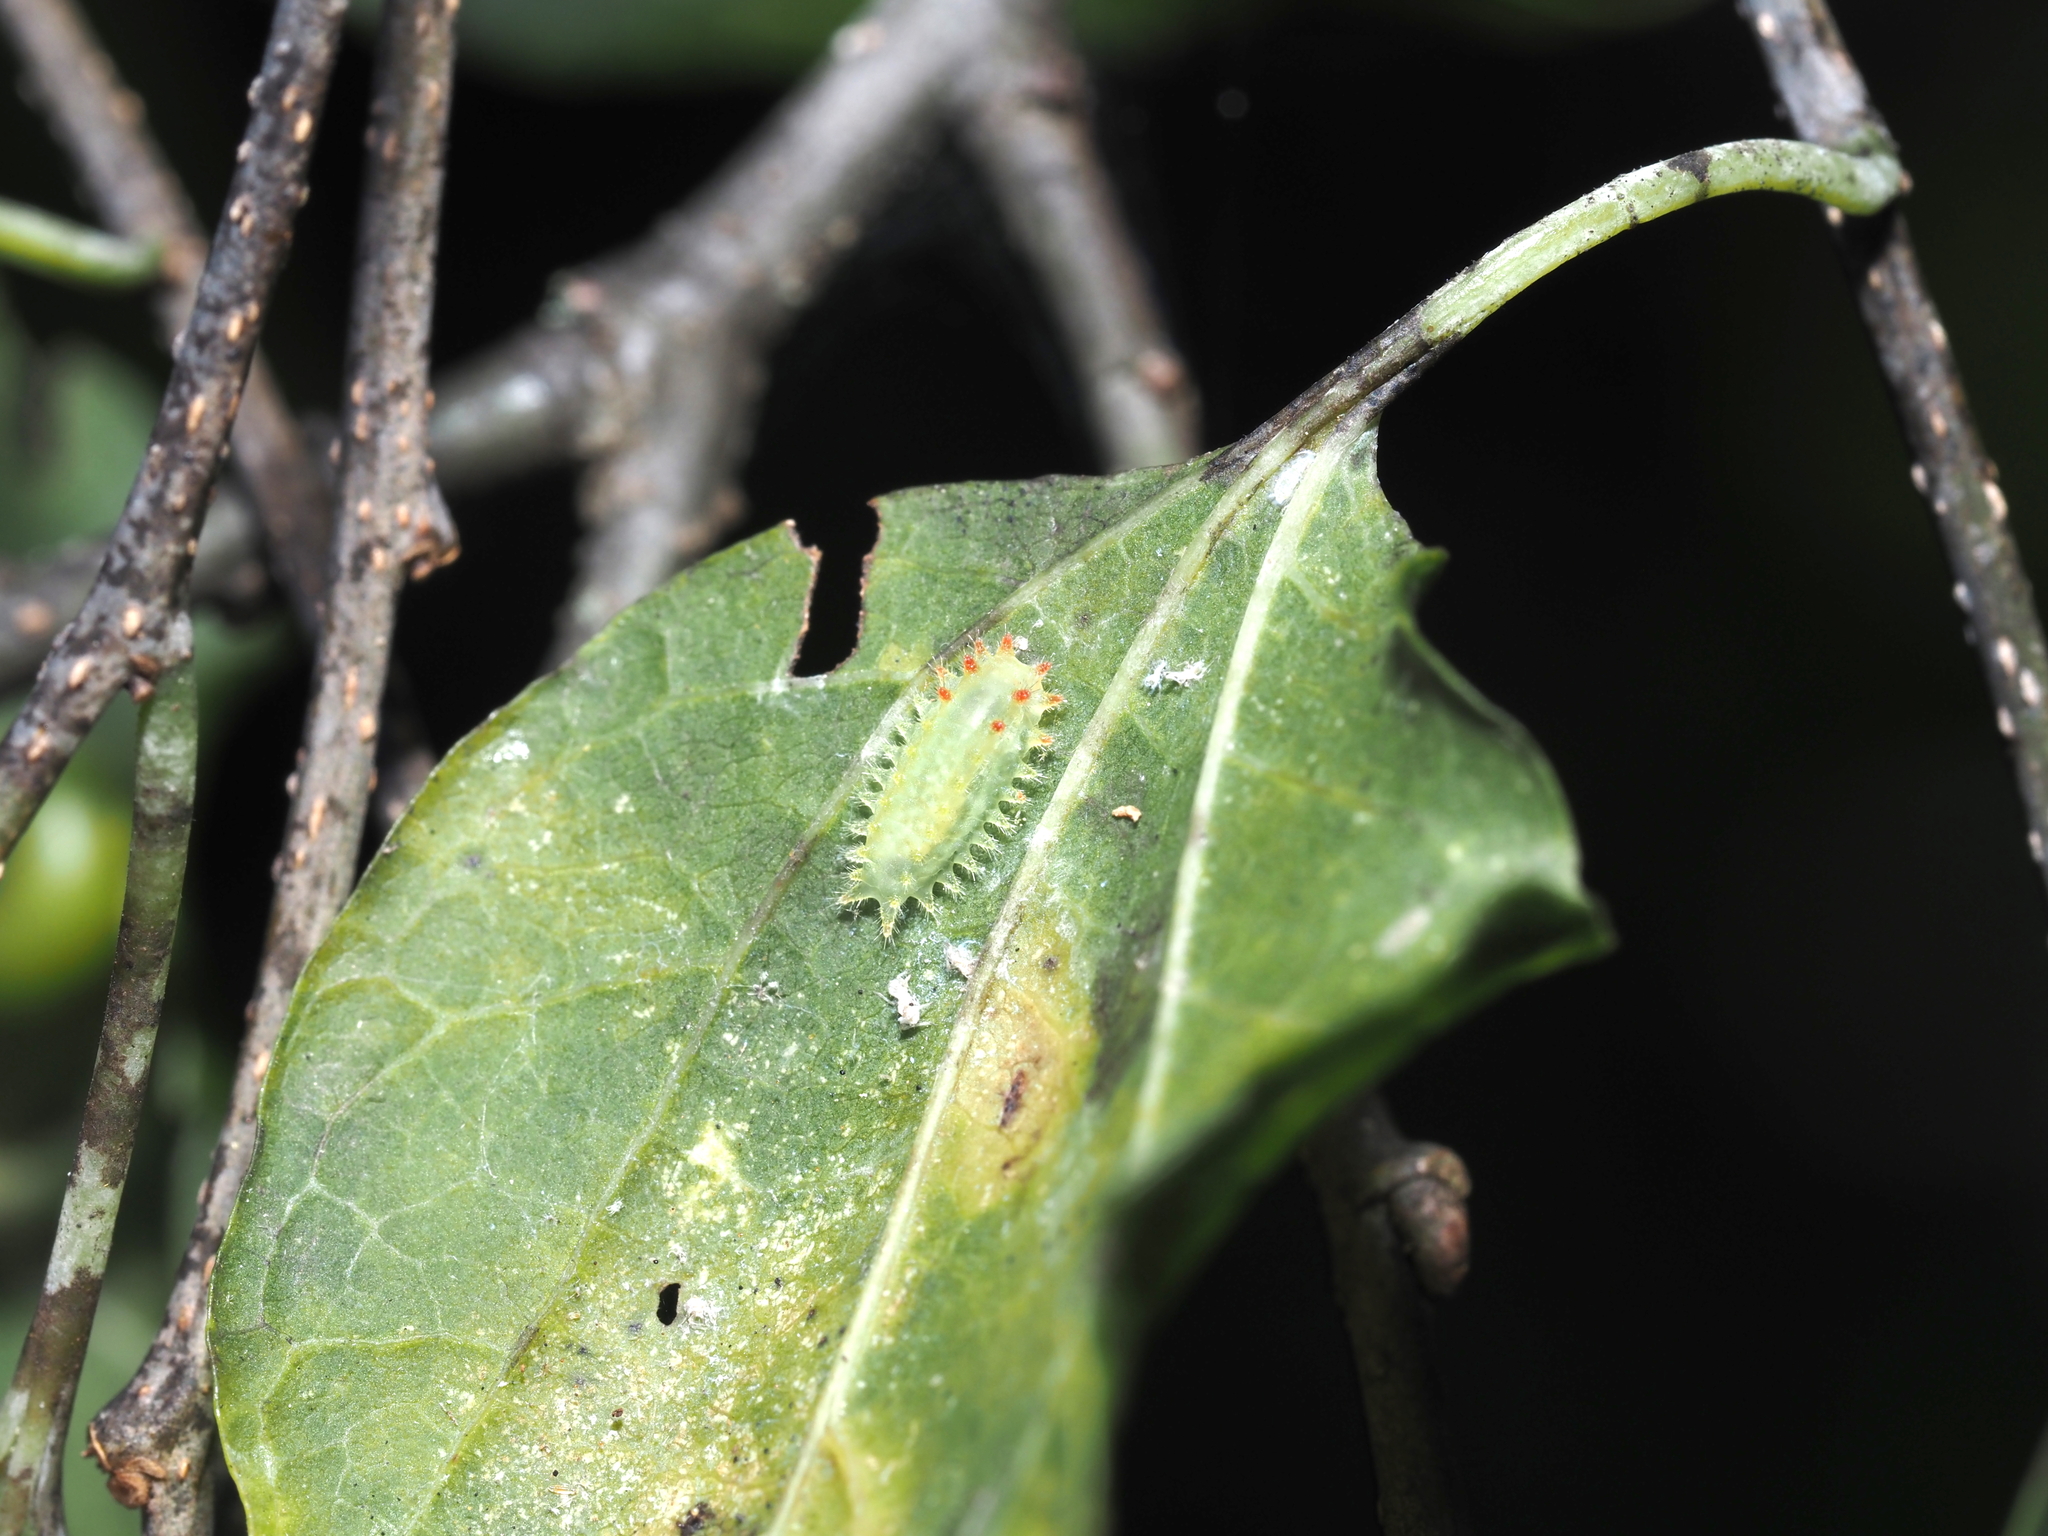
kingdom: Animalia
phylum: Arthropoda
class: Insecta
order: Lepidoptera
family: Limacodidae
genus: Natada
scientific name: Natada nasoni
